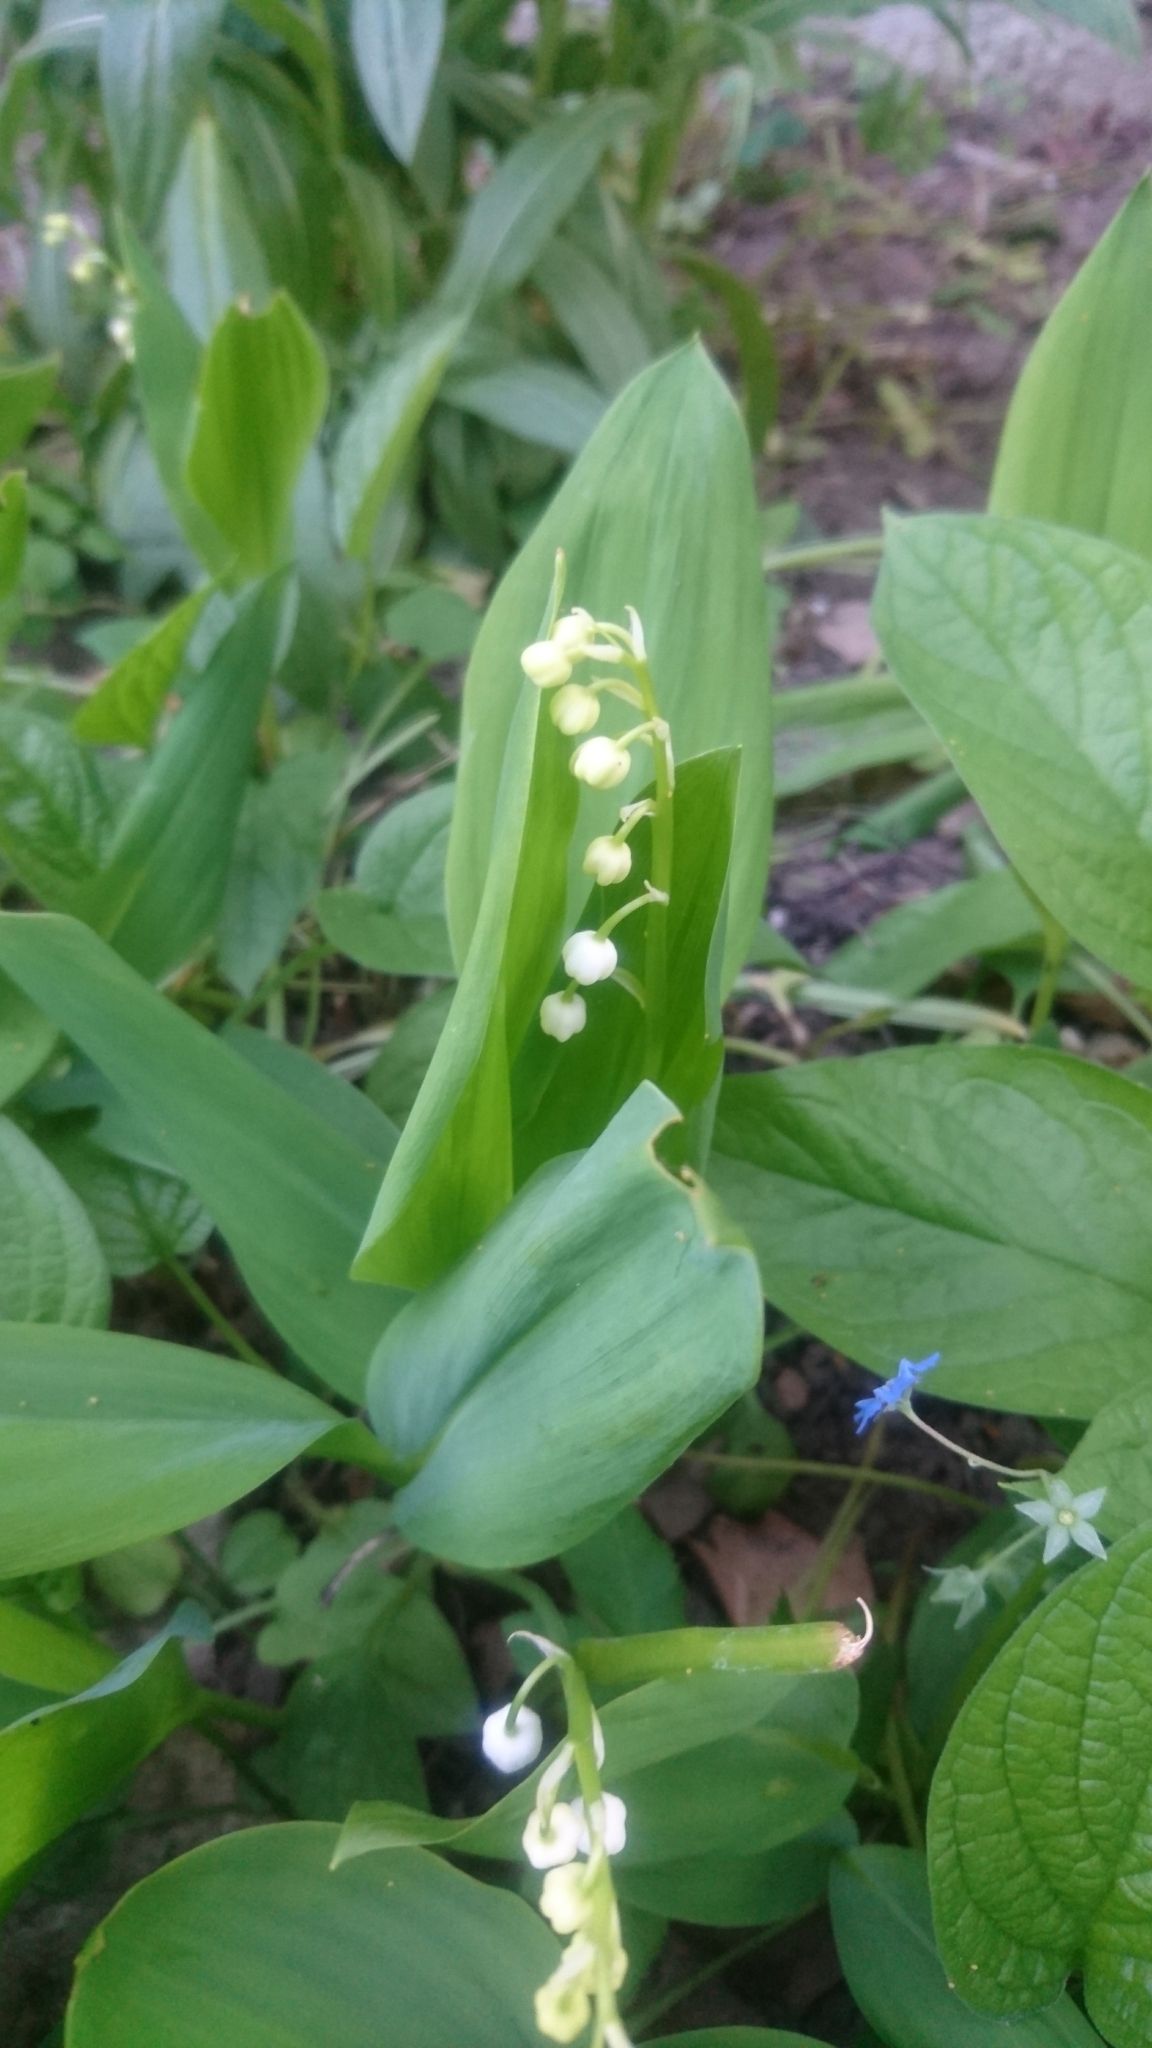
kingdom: Plantae
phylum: Tracheophyta
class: Liliopsida
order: Asparagales
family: Asparagaceae
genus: Convallaria
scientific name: Convallaria majalis
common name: Lily-of-the-valley
